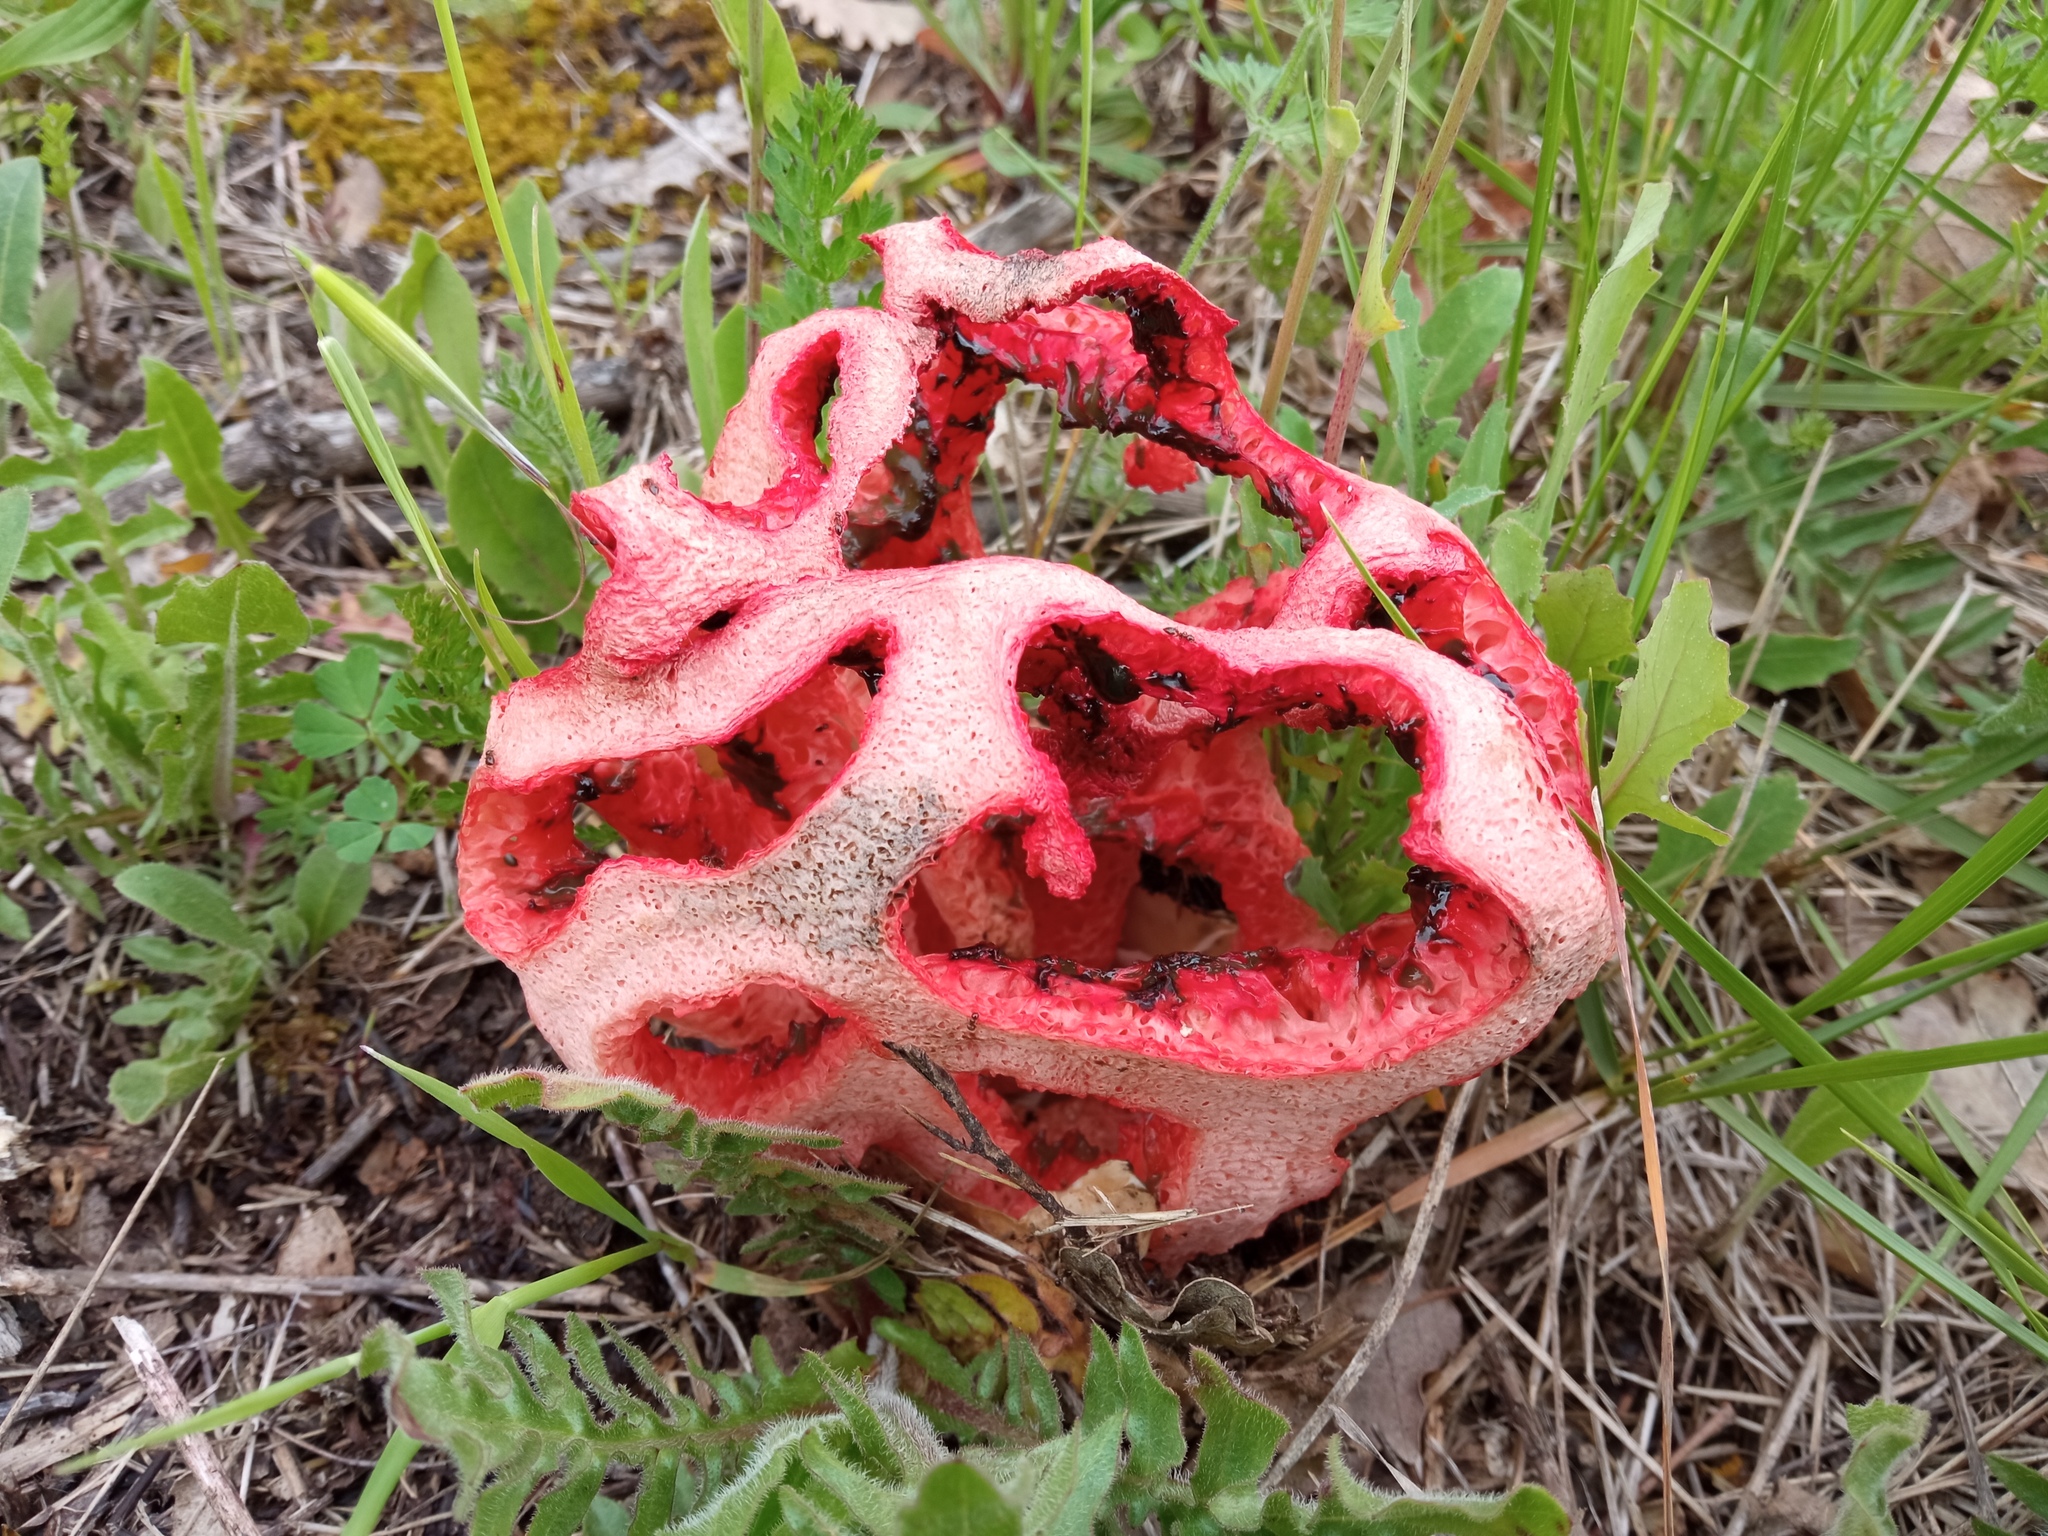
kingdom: Fungi
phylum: Basidiomycota
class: Agaricomycetes
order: Phallales
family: Phallaceae
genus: Clathrus
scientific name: Clathrus ruber
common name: Red cage
